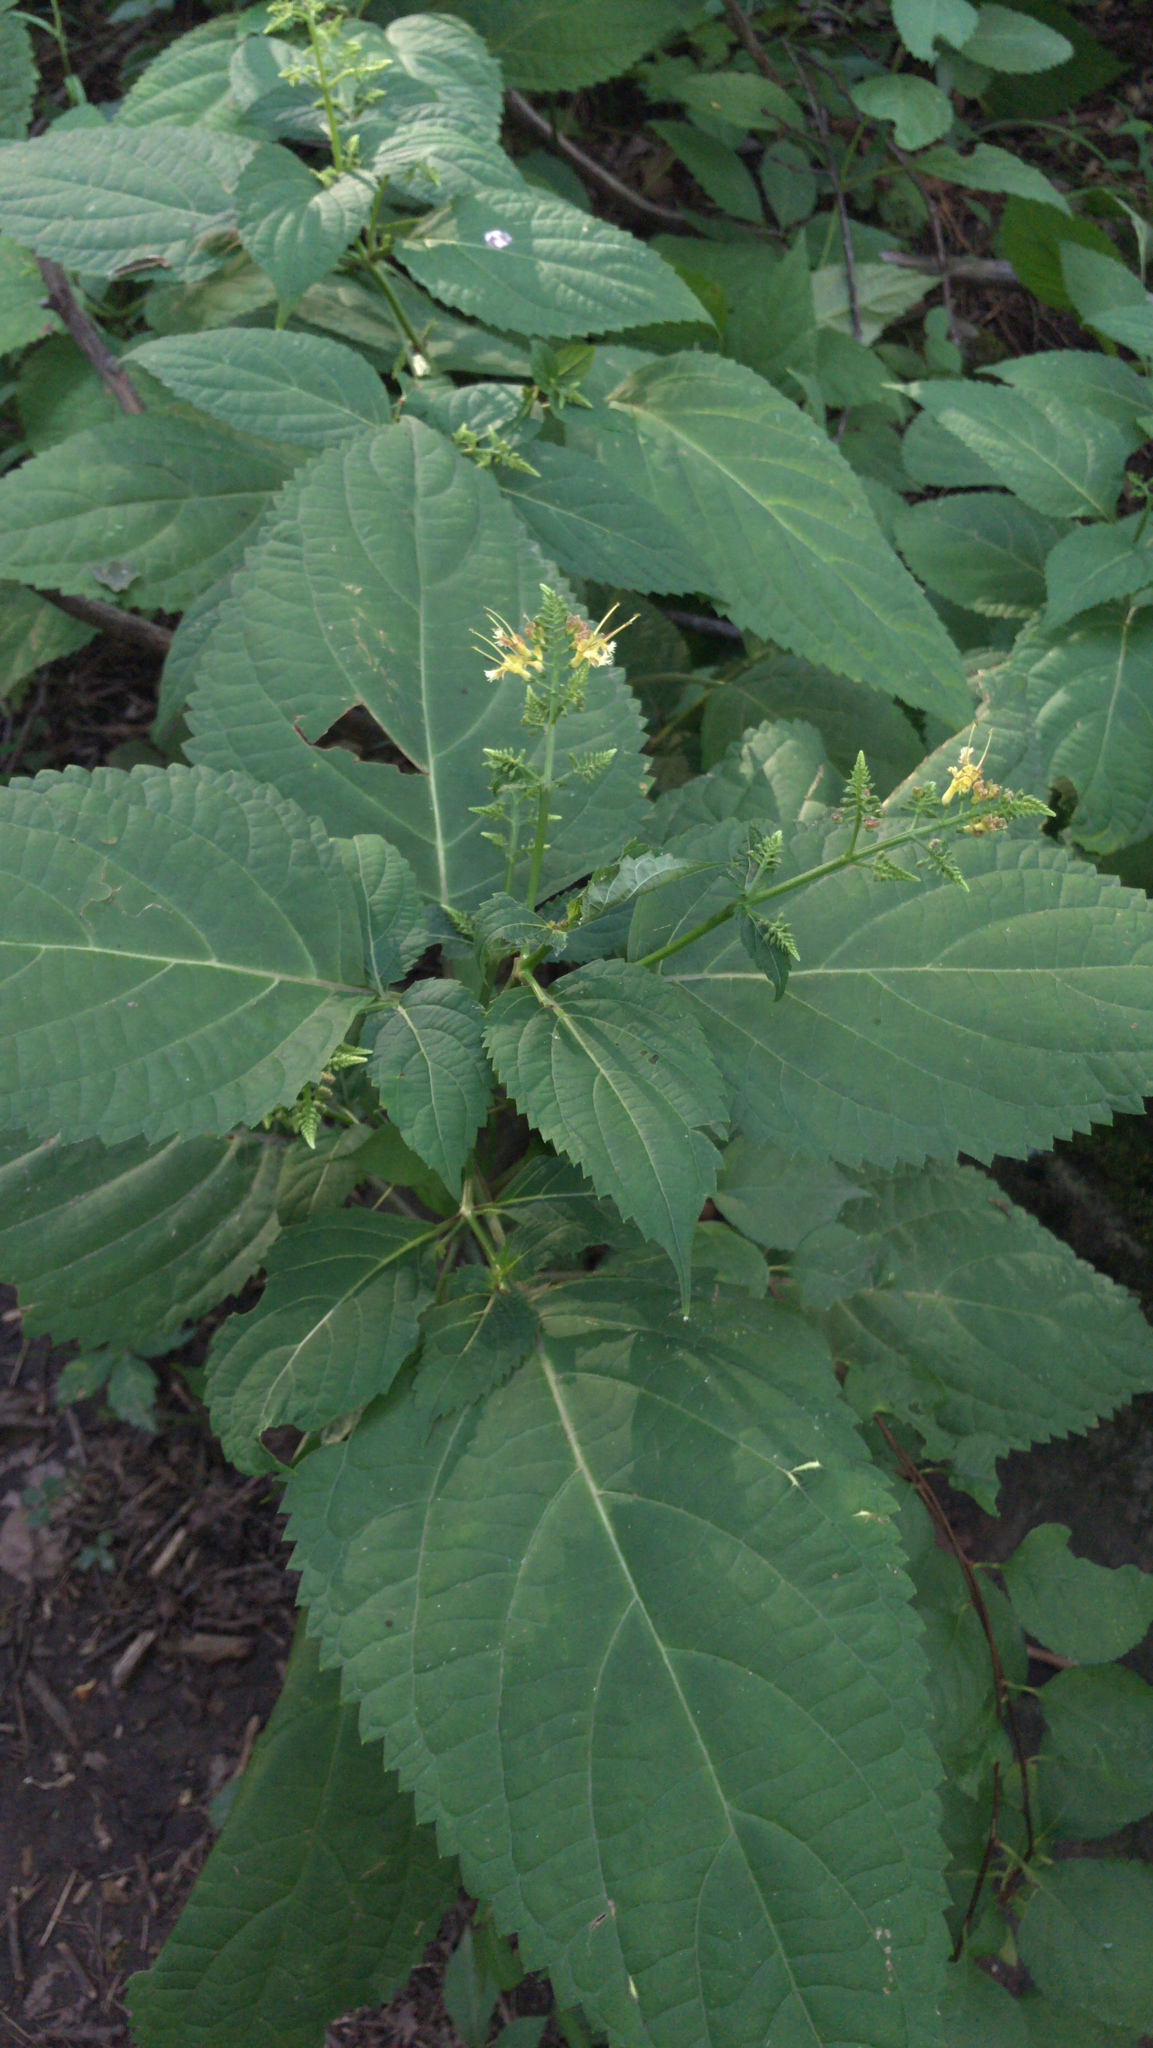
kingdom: Plantae
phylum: Tracheophyta
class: Magnoliopsida
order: Lamiales
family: Lamiaceae
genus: Collinsonia
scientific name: Collinsonia canadensis
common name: Northern horsebalm
